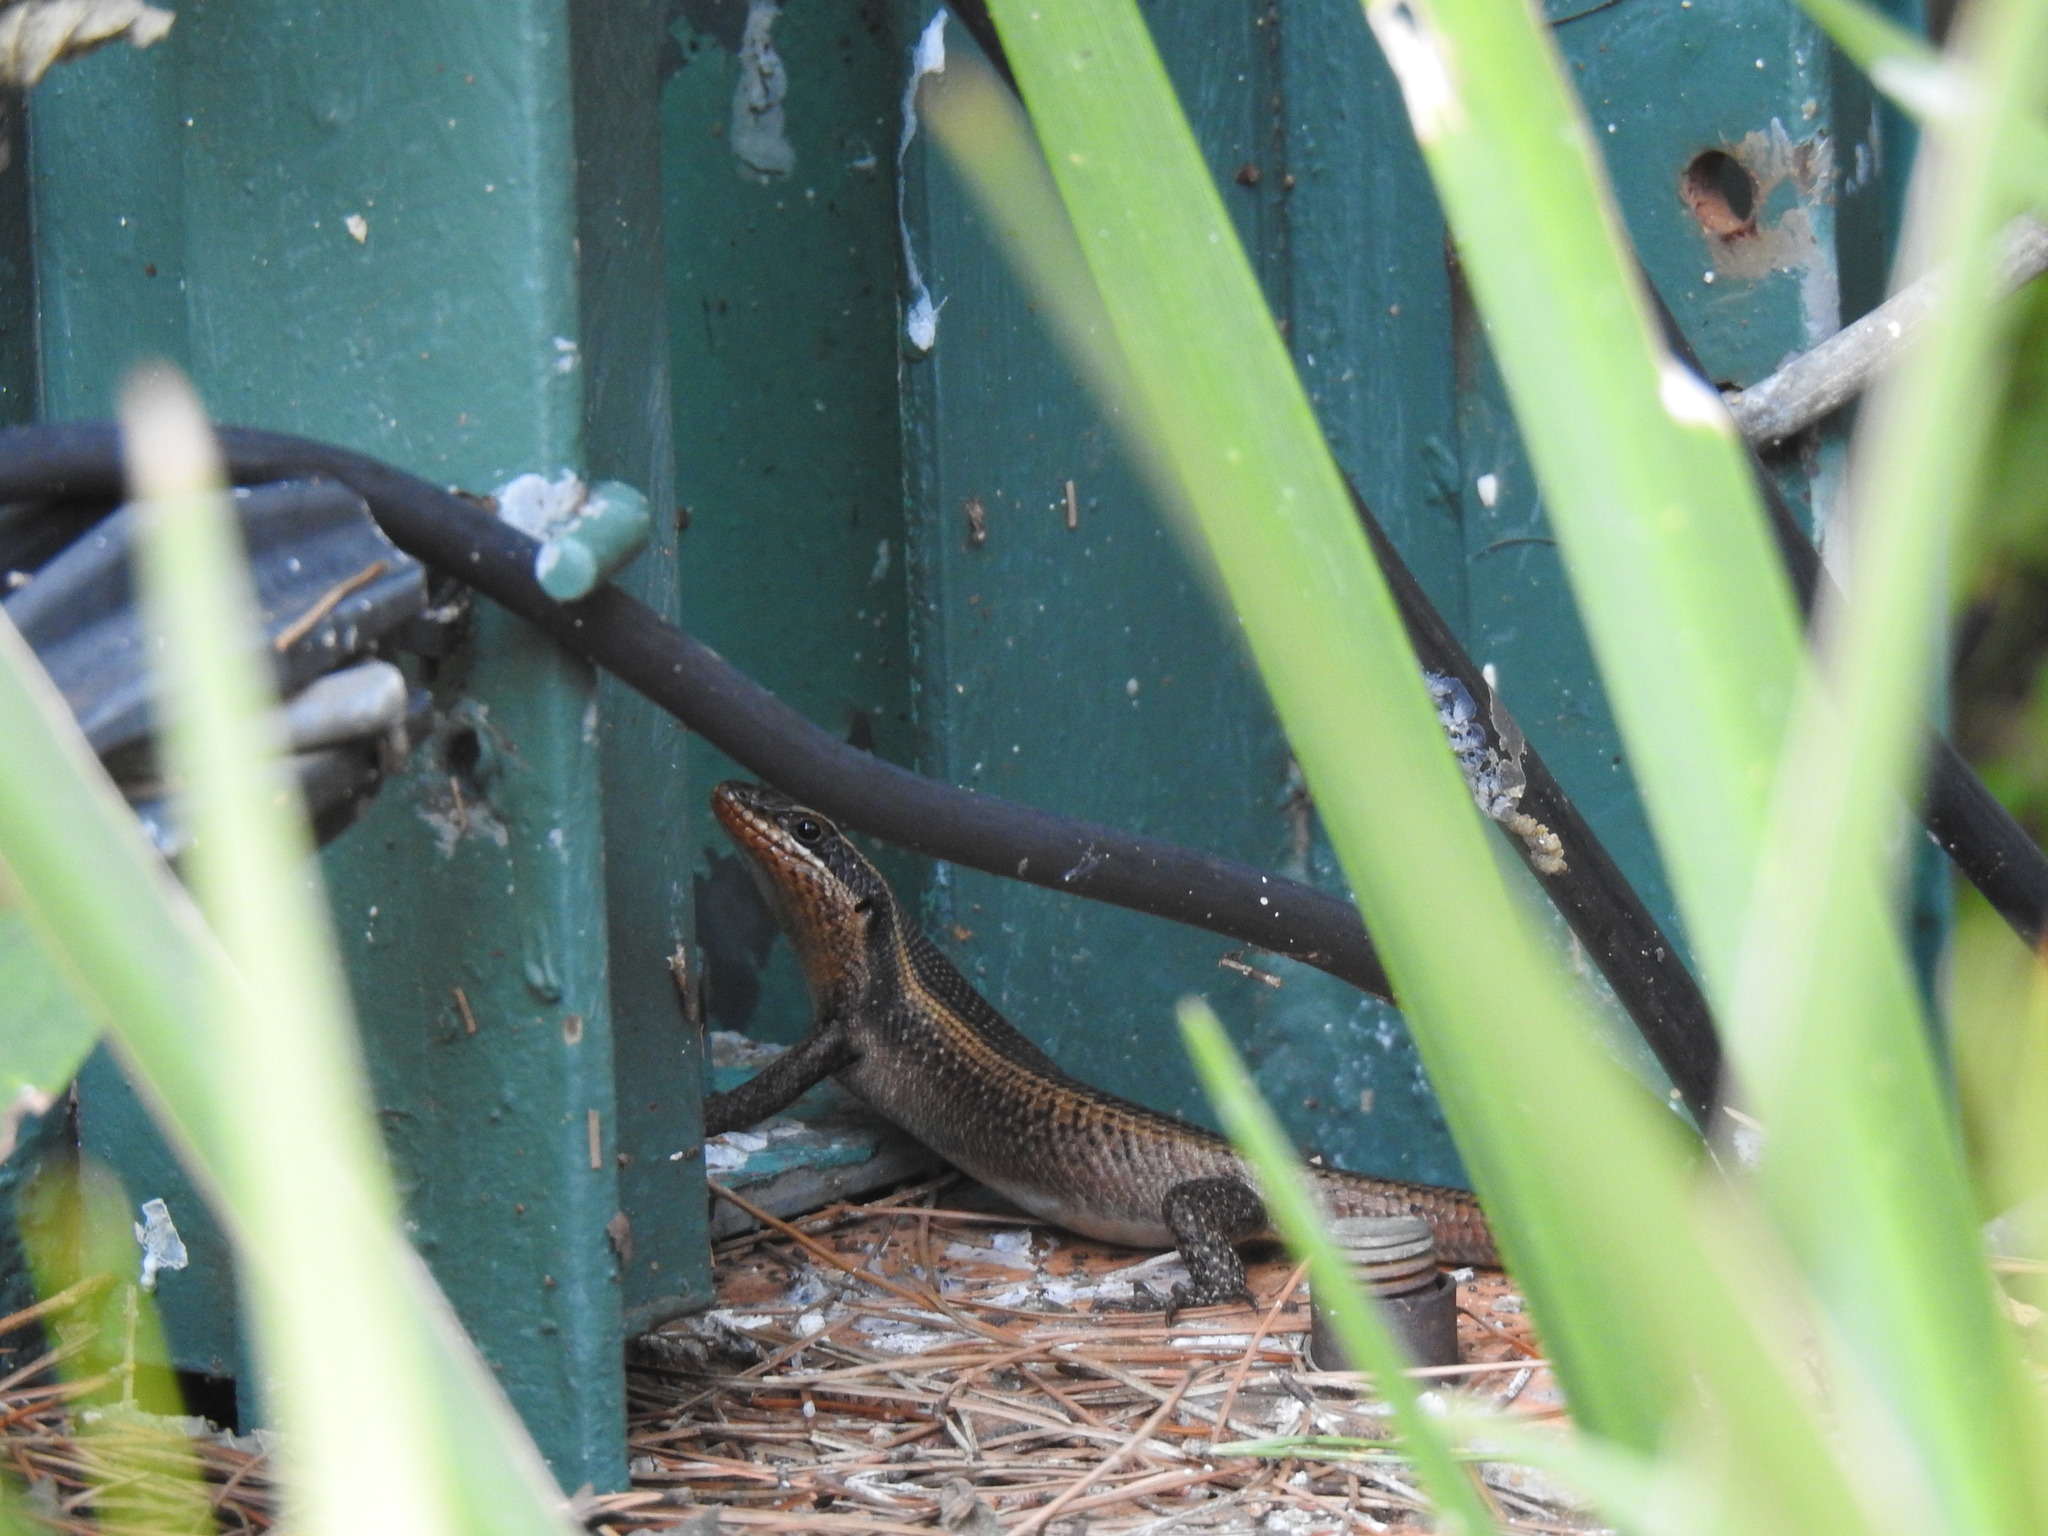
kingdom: Animalia
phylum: Chordata
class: Squamata
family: Scincidae
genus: Trachylepis
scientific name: Trachylepis punctatissima
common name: Montane speckled skink
